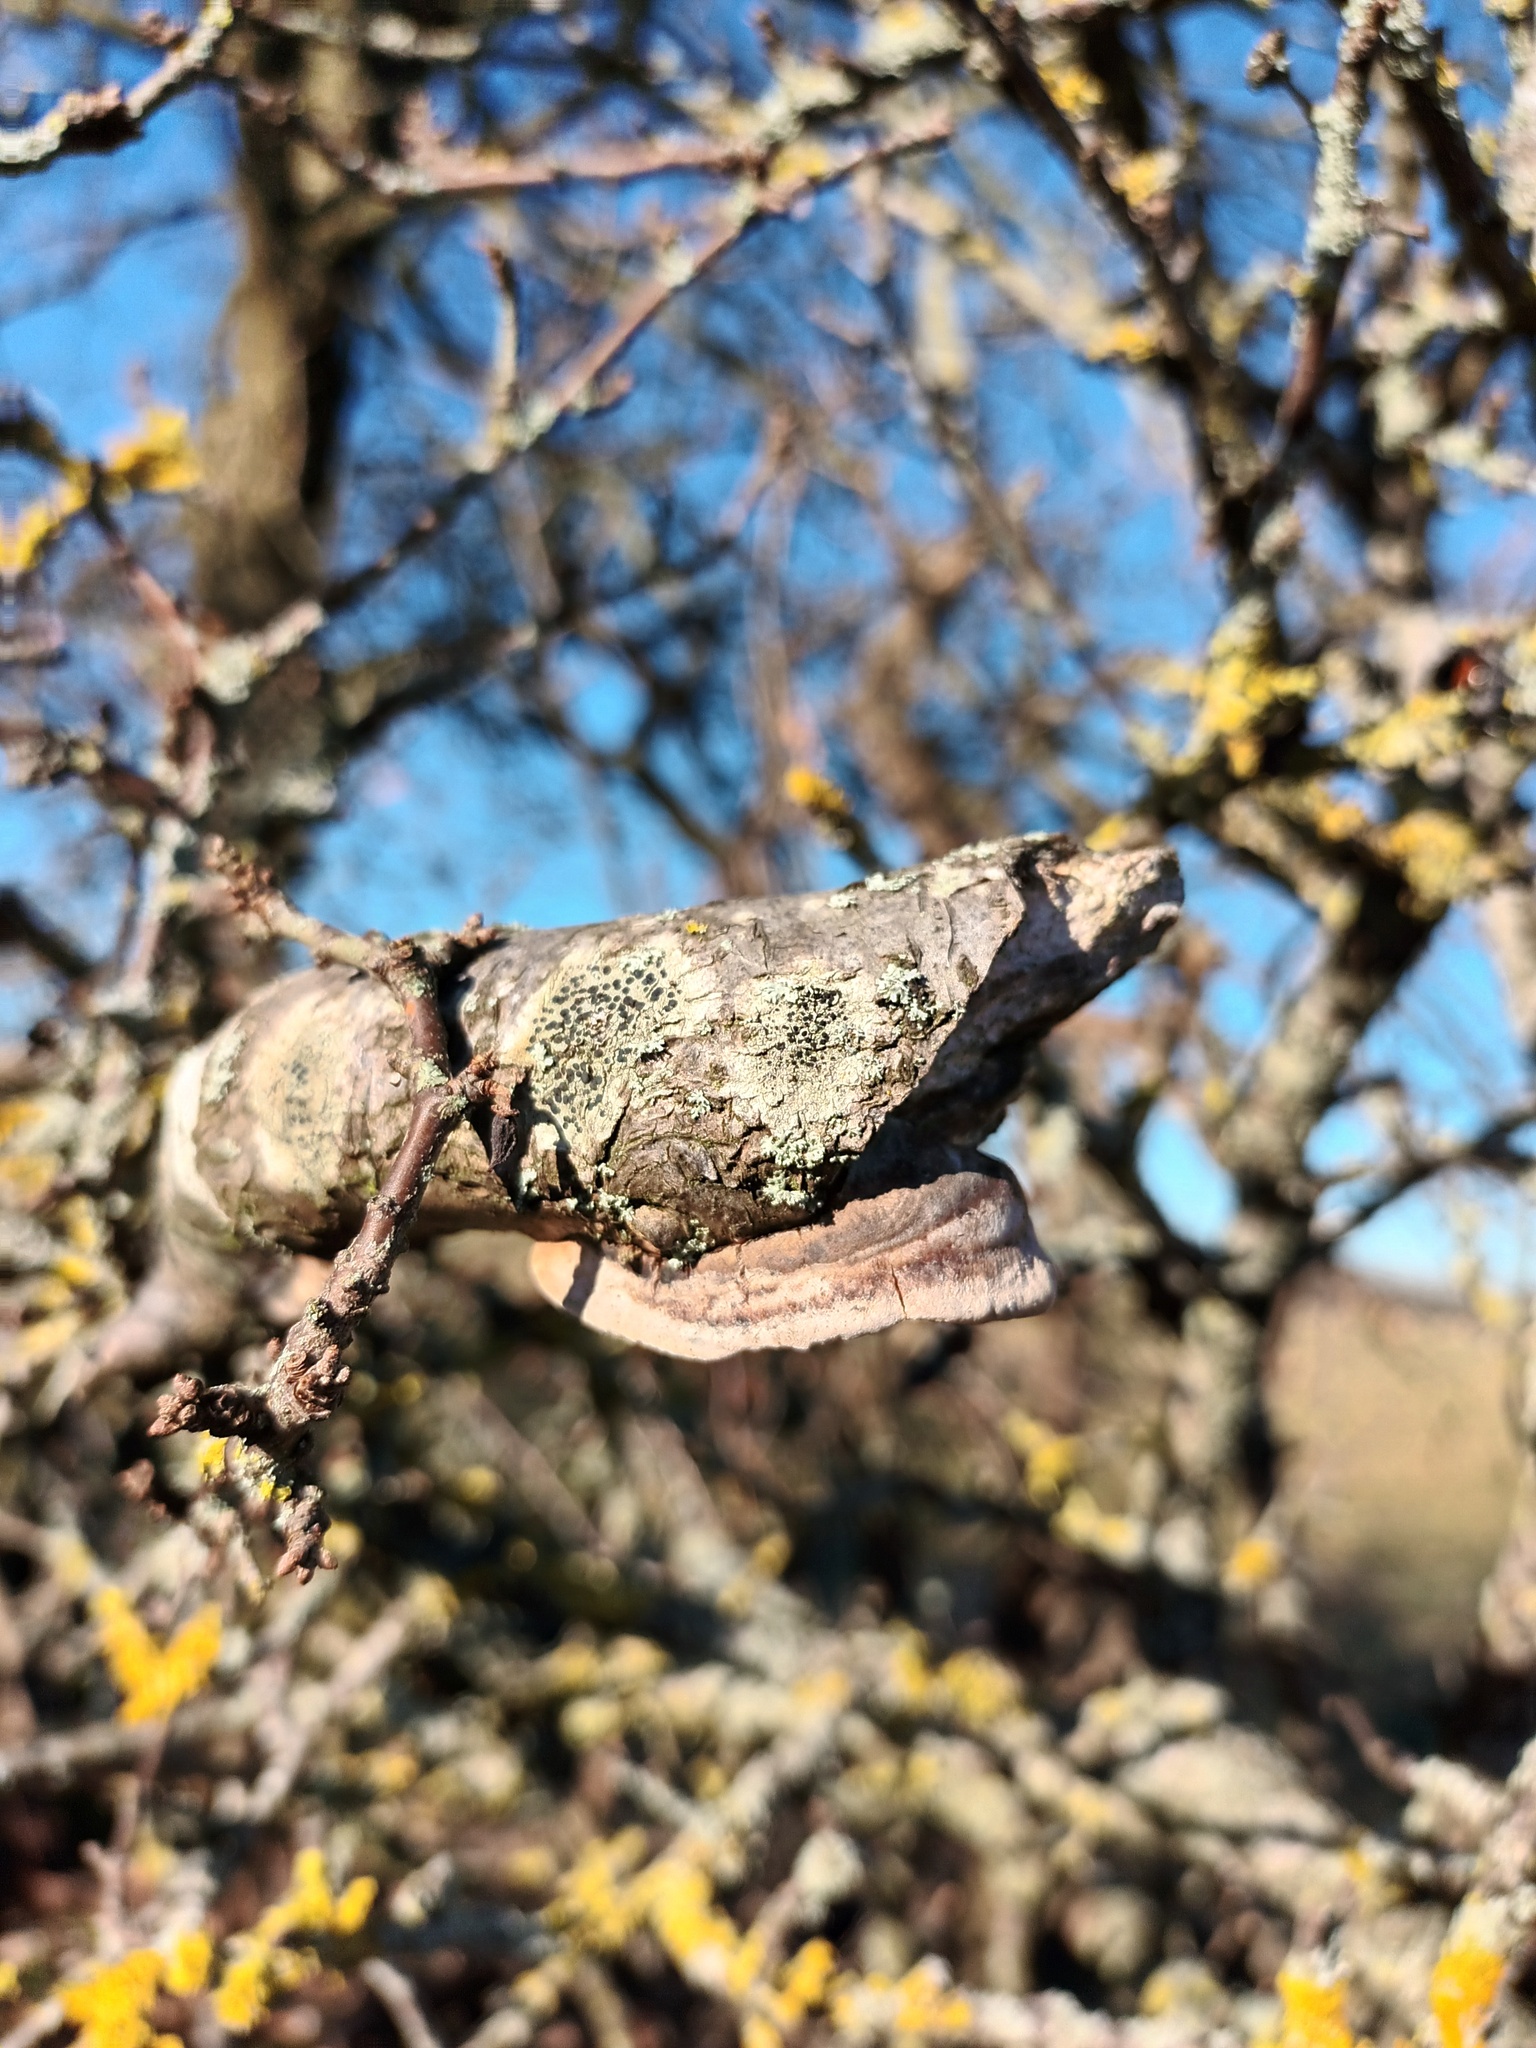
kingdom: Fungi
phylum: Basidiomycota
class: Agaricomycetes
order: Hymenochaetales
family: Hymenochaetaceae
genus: Phellinus
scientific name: Phellinus pomaceus
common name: Cushion bracket
